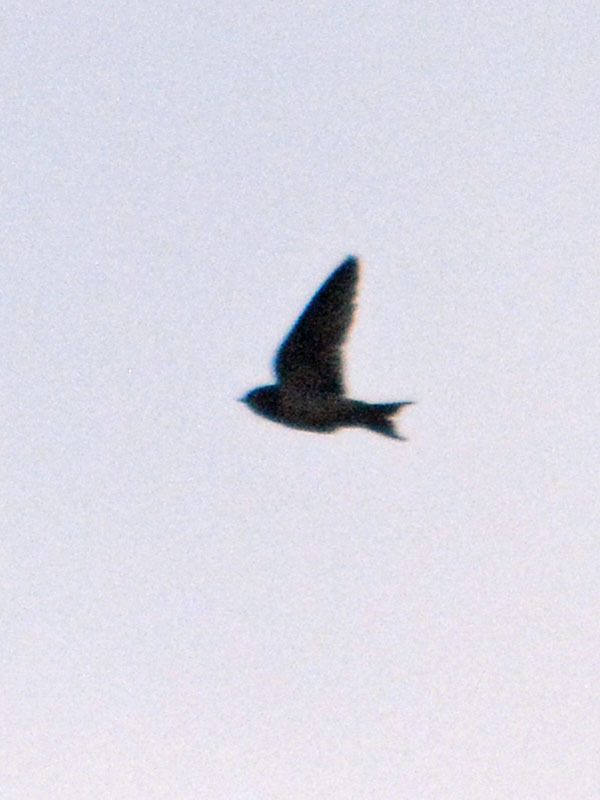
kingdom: Animalia
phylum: Chordata
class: Aves
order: Passeriformes
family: Hirundinidae
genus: Hirundo
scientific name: Hirundo rustica
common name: Barn swallow
